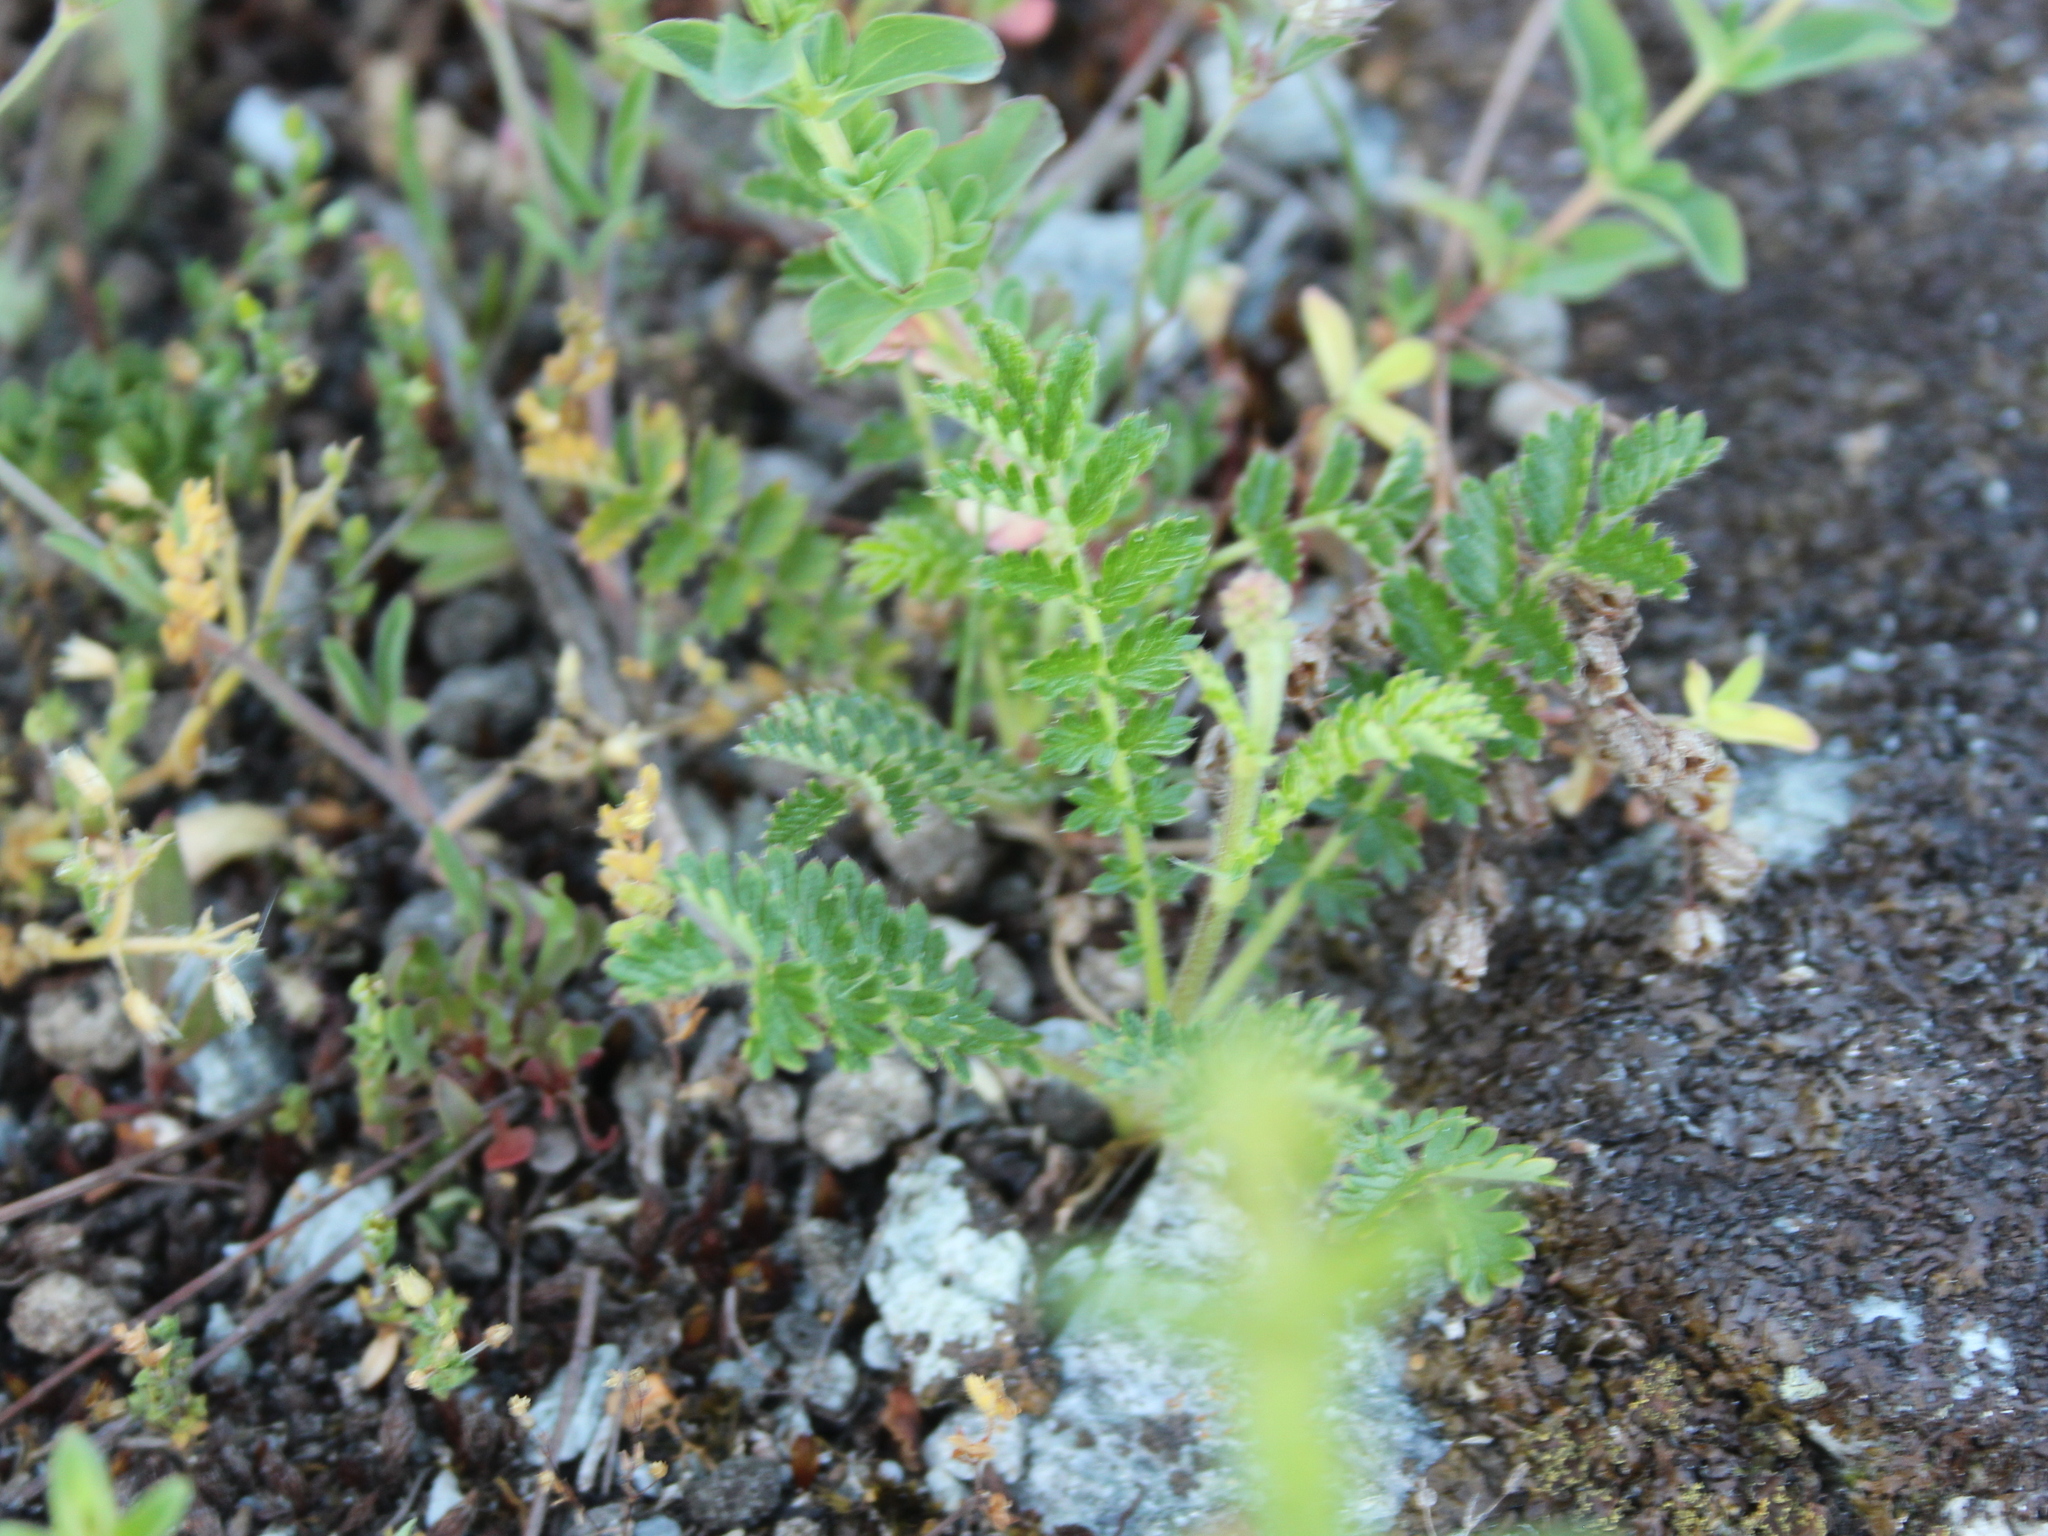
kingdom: Plantae
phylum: Tracheophyta
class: Magnoliopsida
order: Rosales
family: Rosaceae
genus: Acaena
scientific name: Acaena agnipila
